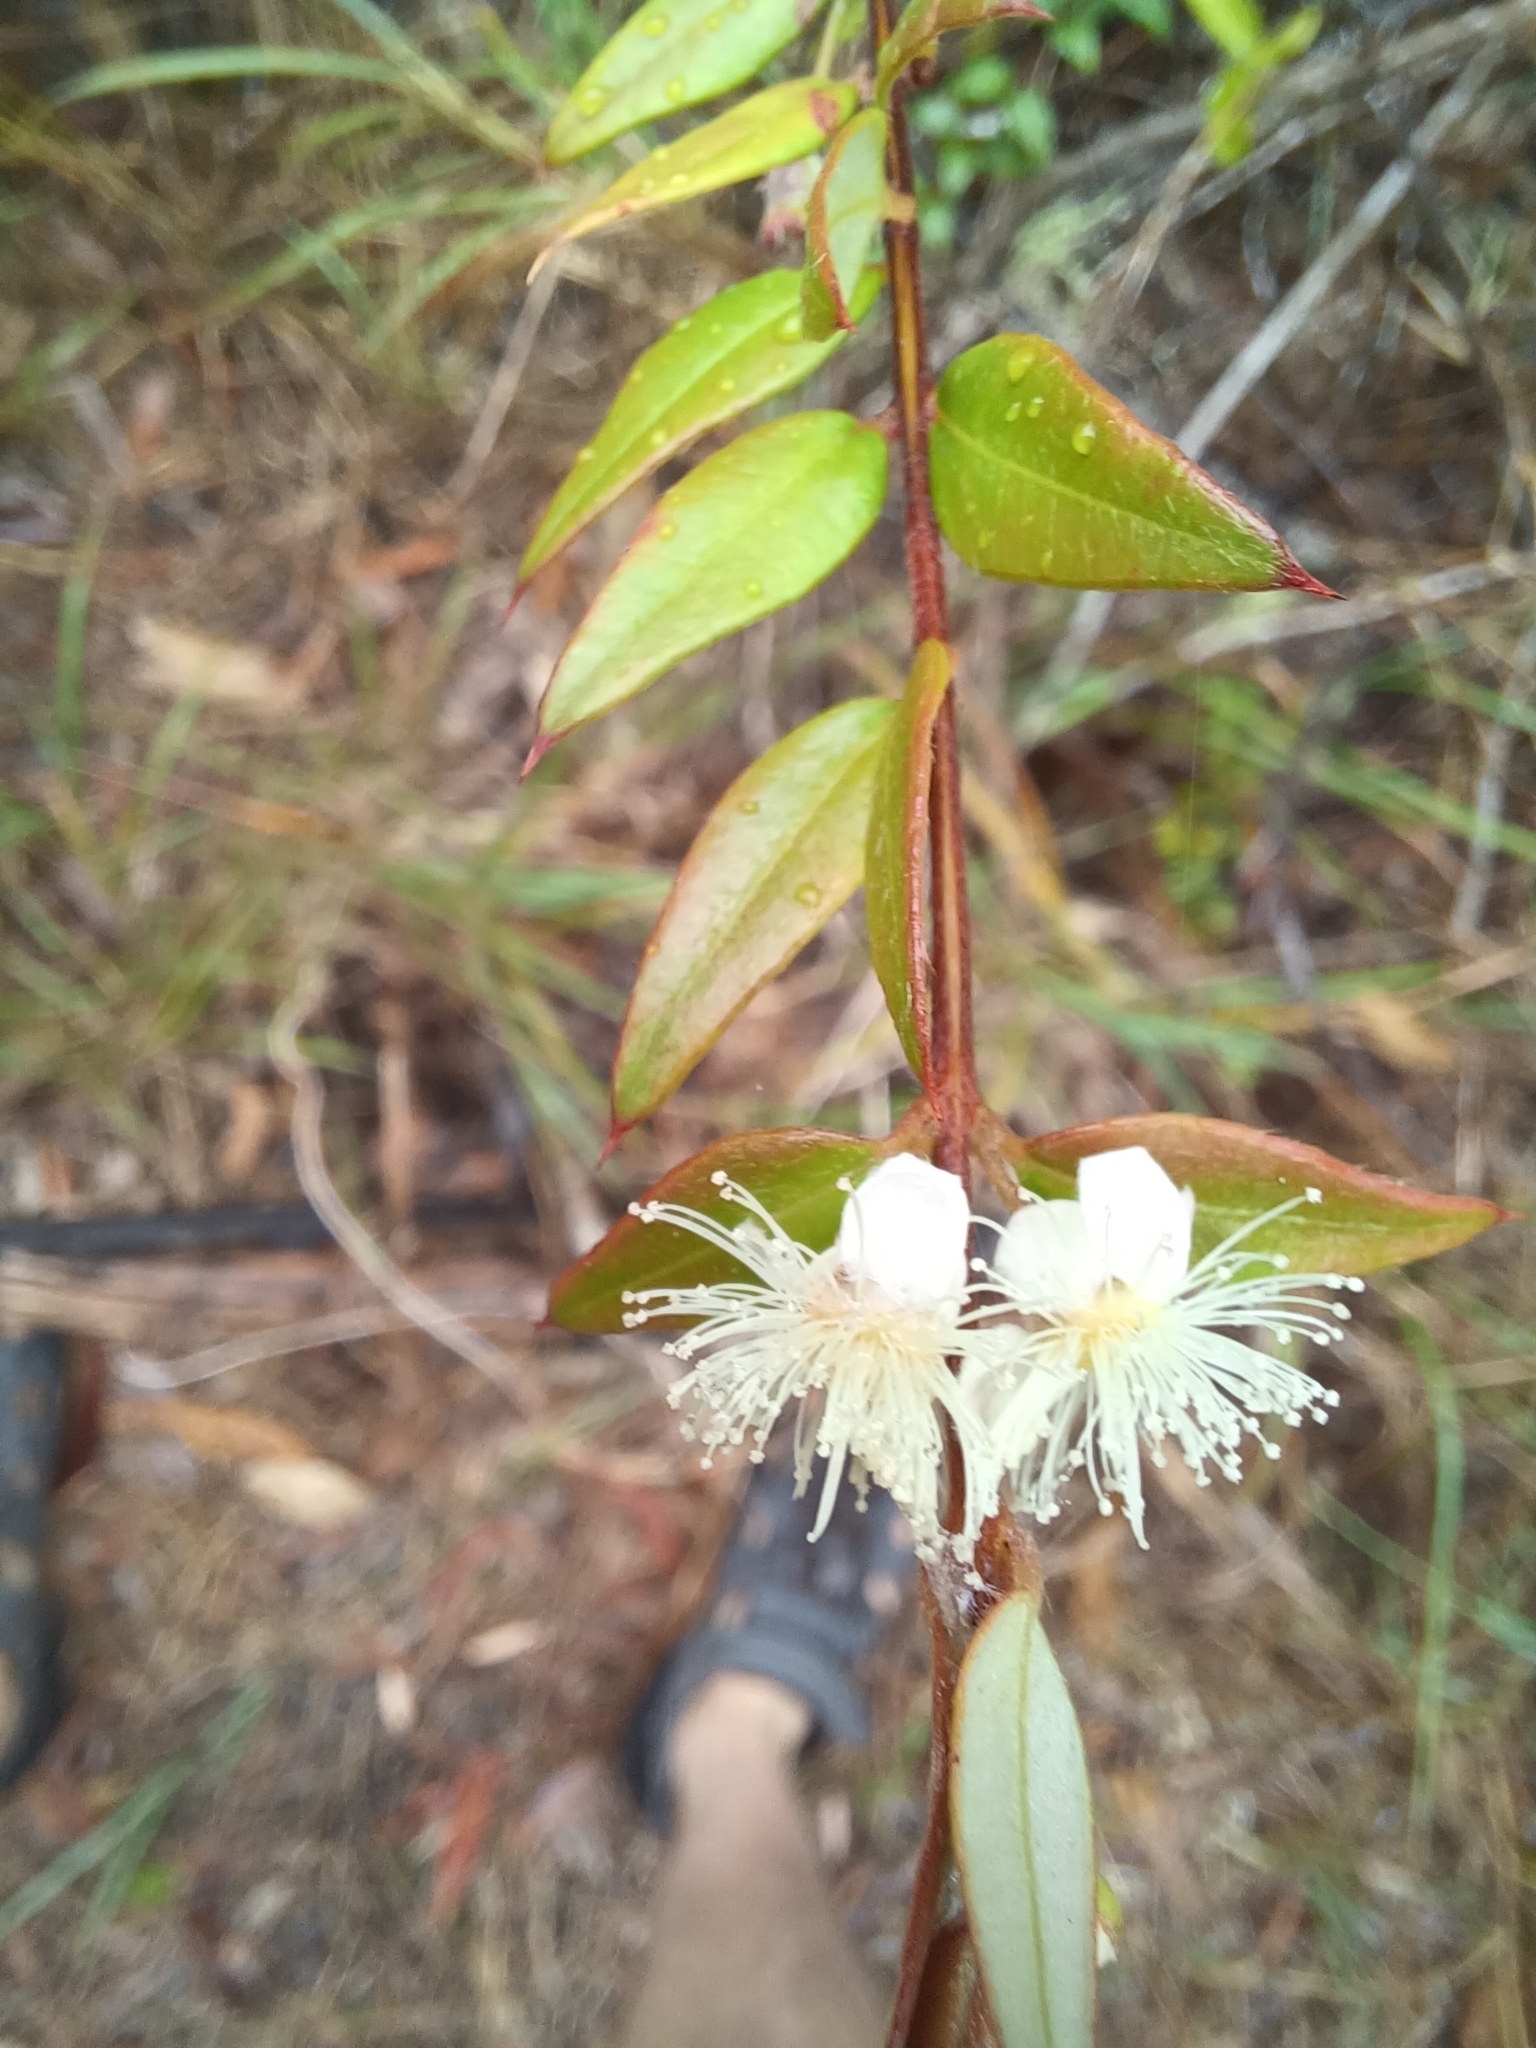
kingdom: Plantae
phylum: Tracheophyta
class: Magnoliopsida
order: Myrtales
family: Myrtaceae
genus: Austromyrtus
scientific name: Austromyrtus dulcis
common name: Migden-berry
